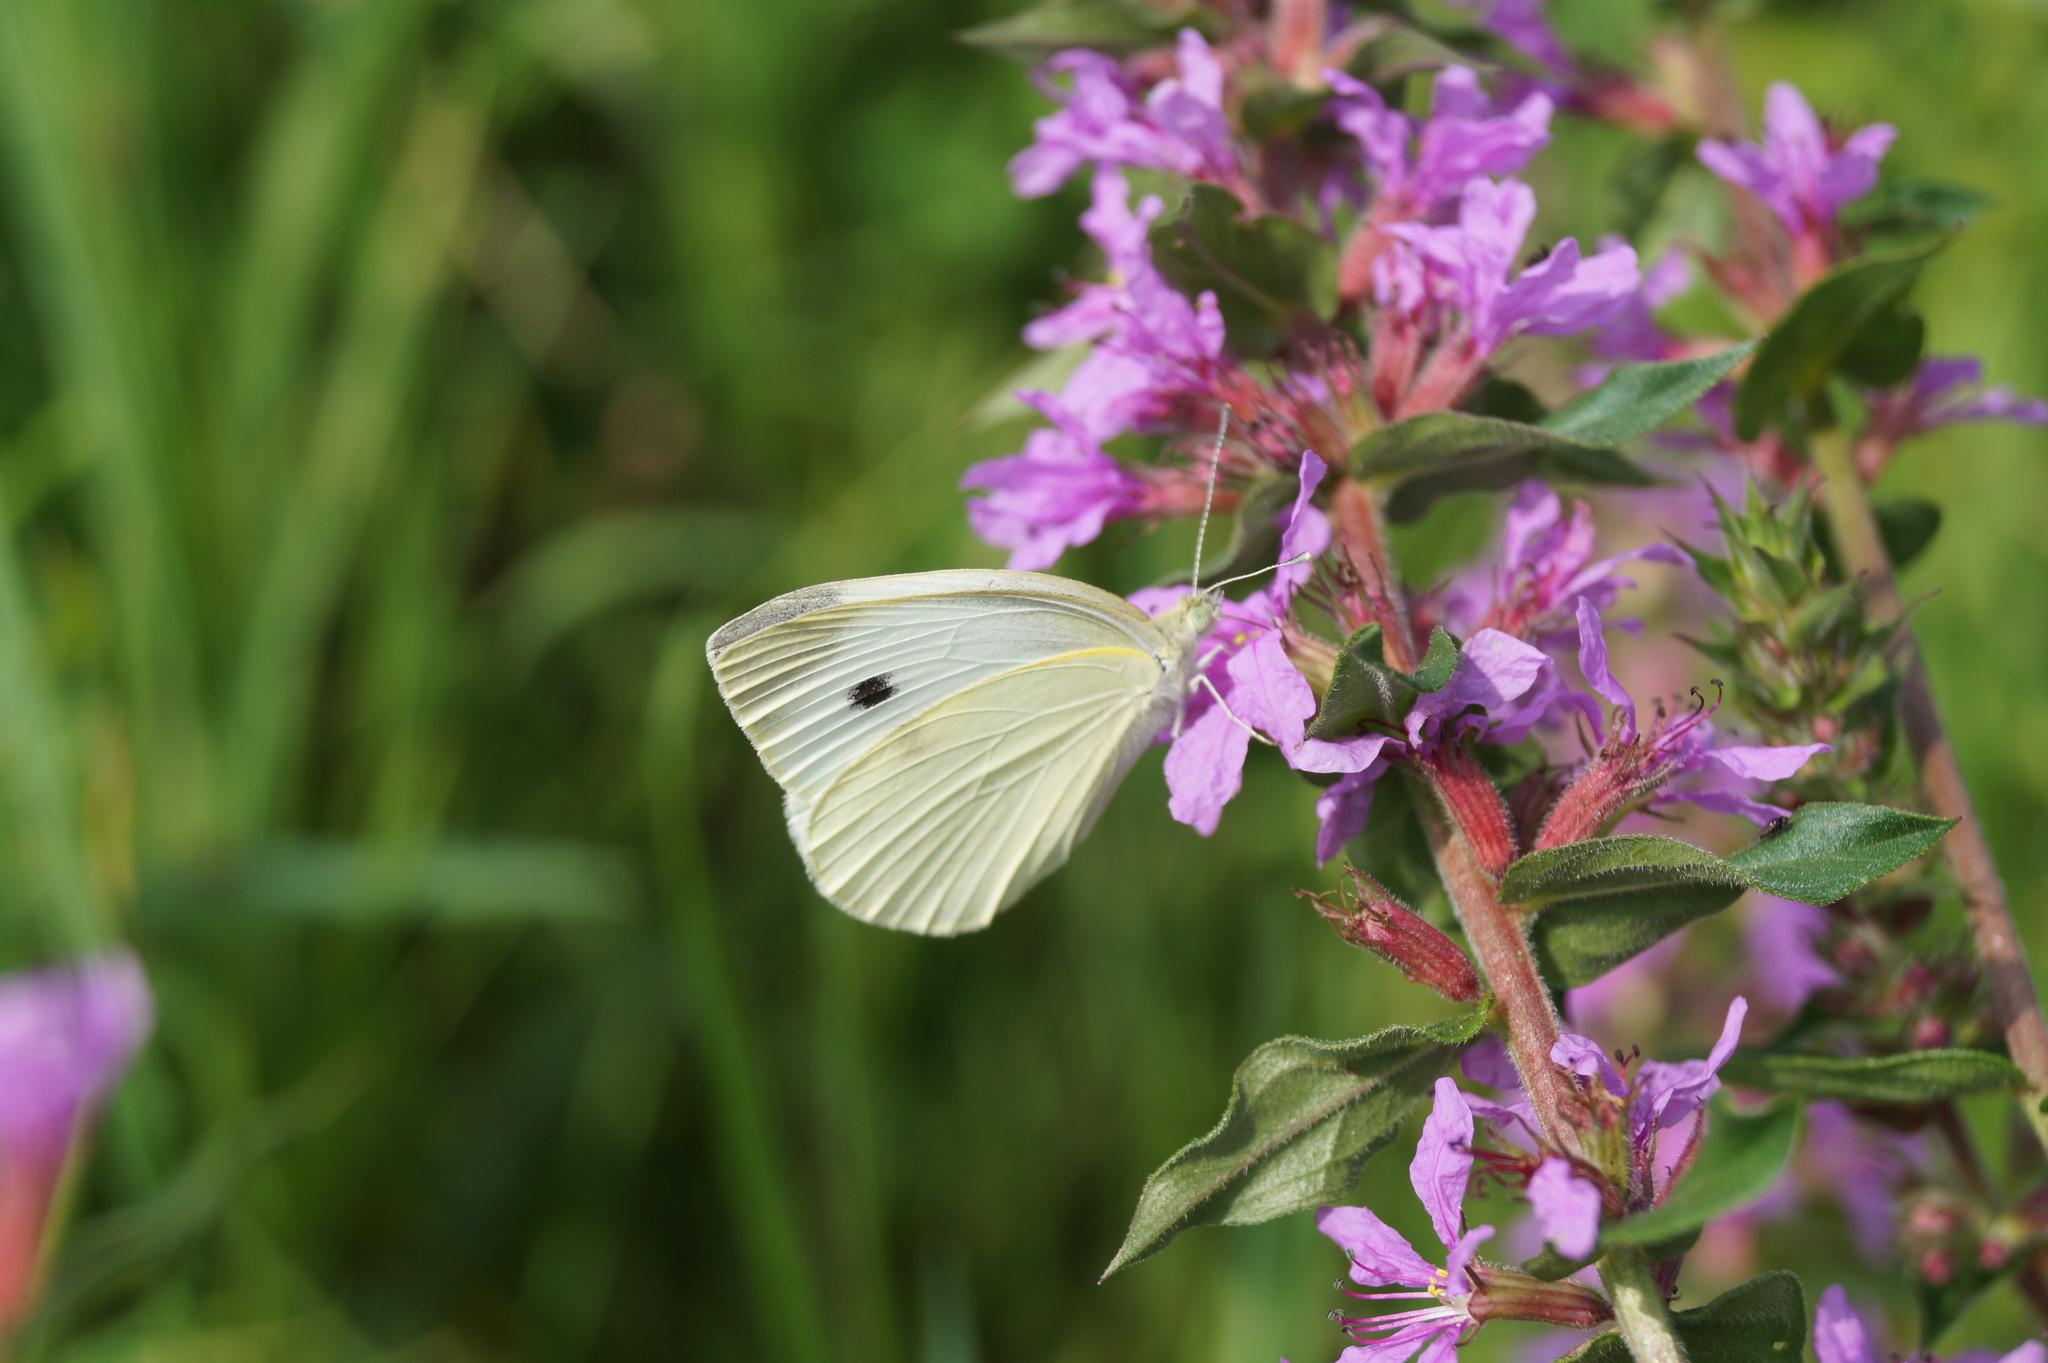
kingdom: Animalia
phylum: Arthropoda
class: Insecta
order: Lepidoptera
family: Pieridae
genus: Pieris
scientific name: Pieris rapae
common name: Small white
